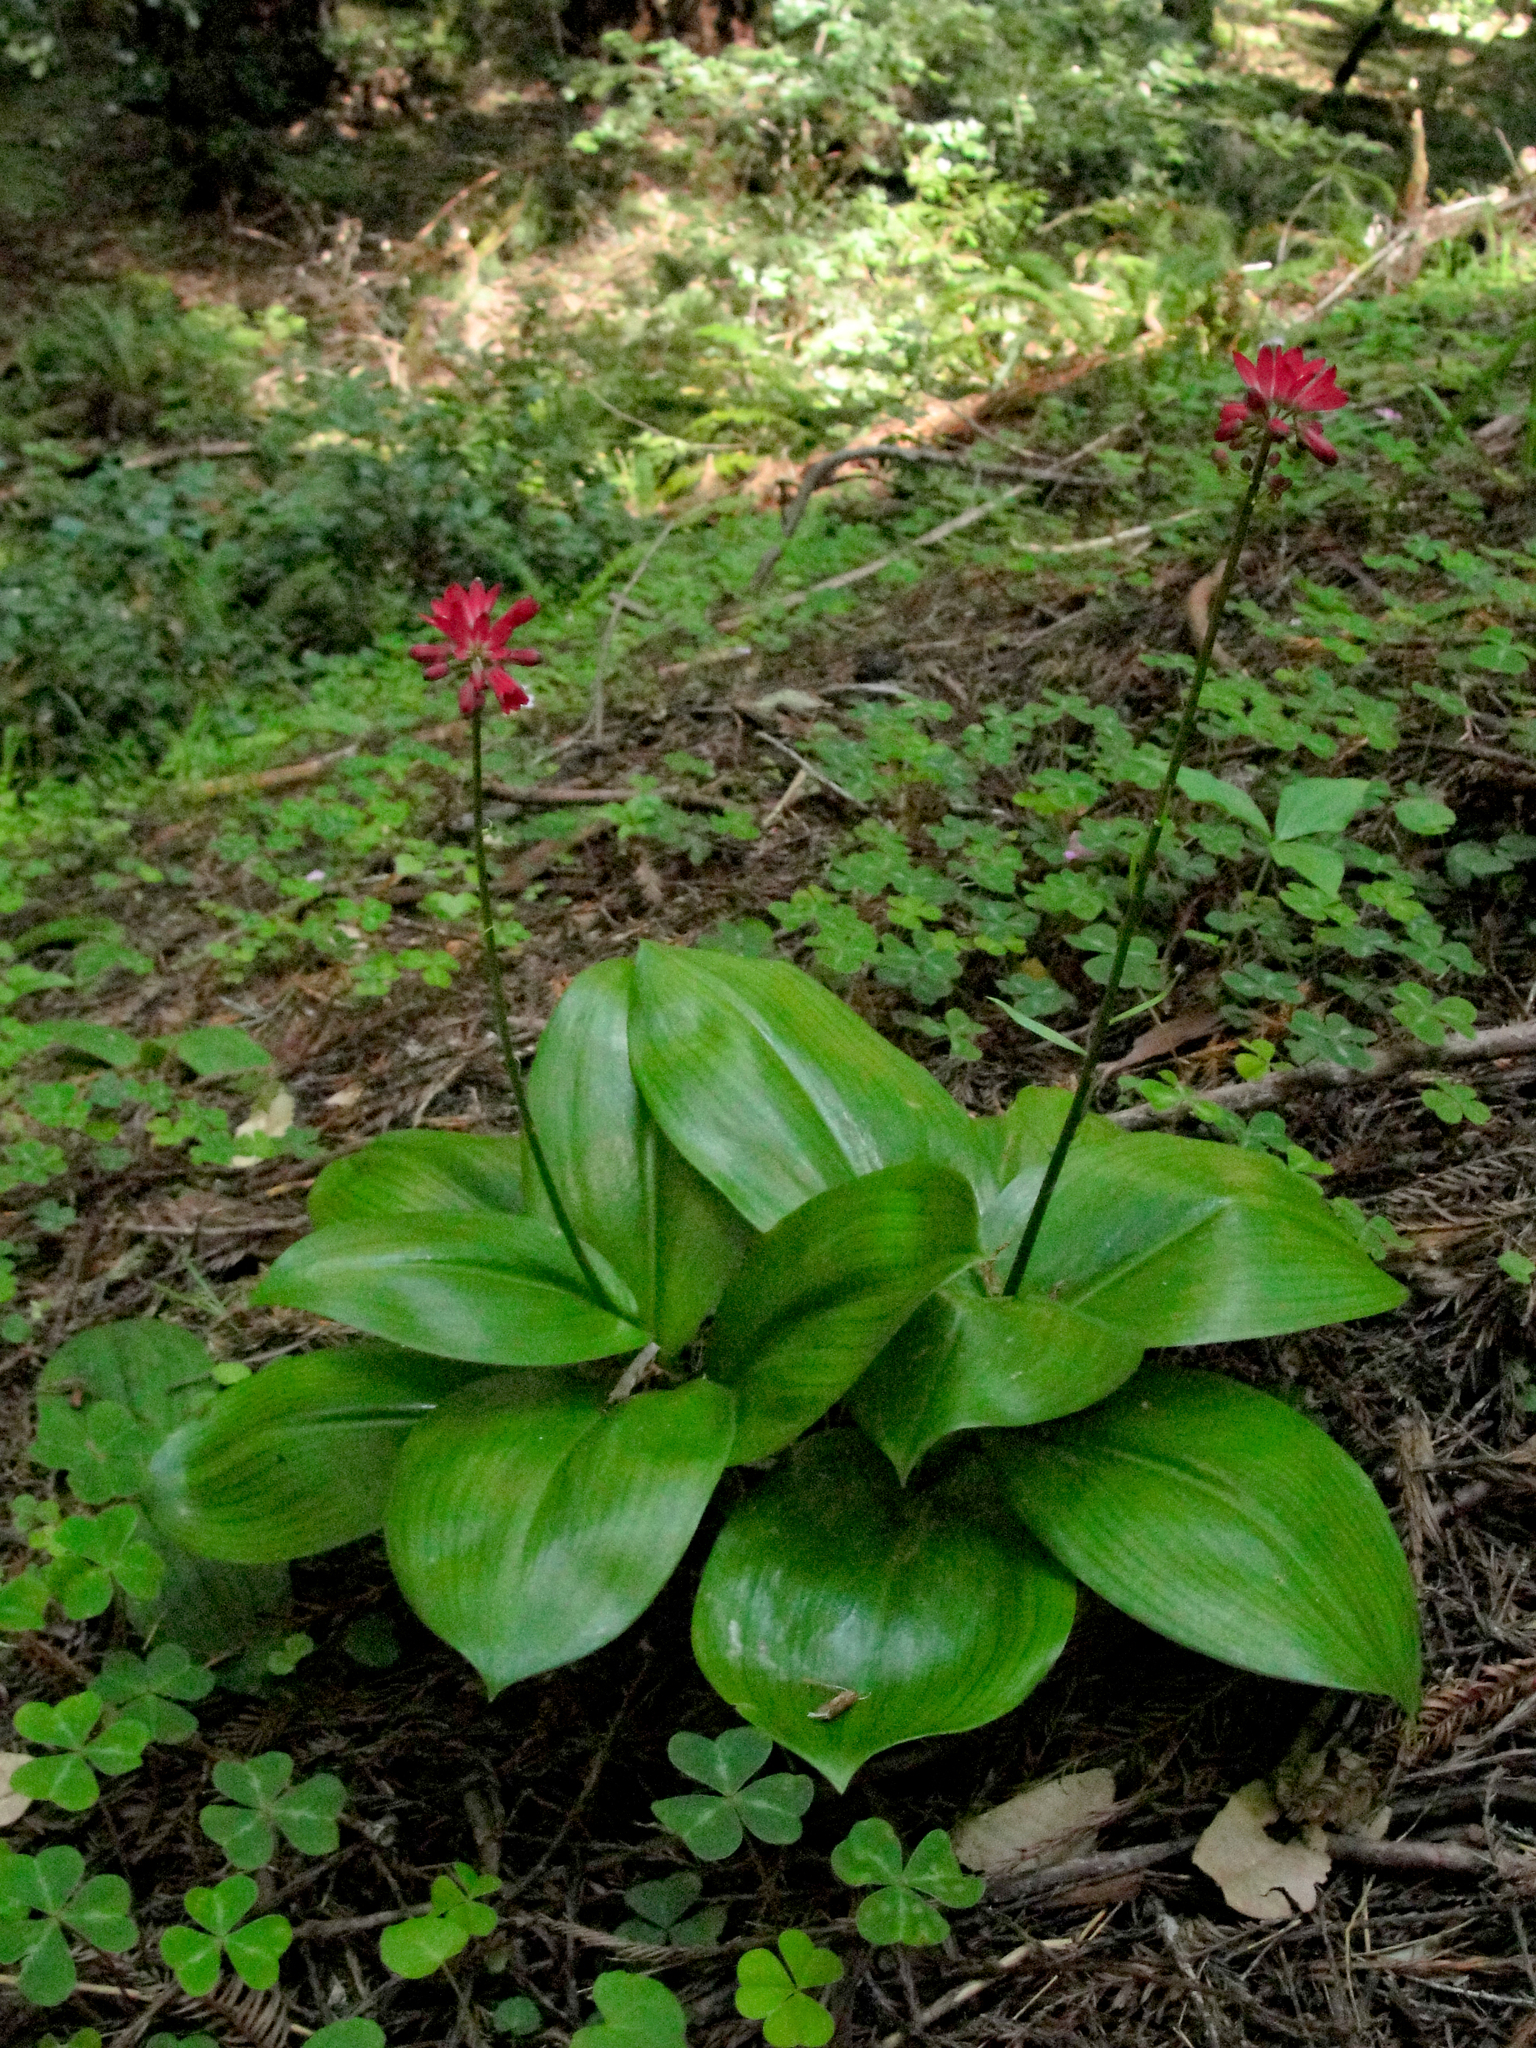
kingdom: Plantae
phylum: Tracheophyta
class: Liliopsida
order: Liliales
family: Liliaceae
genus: Clintonia
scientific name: Clintonia andrewsiana
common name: Red clintonia
